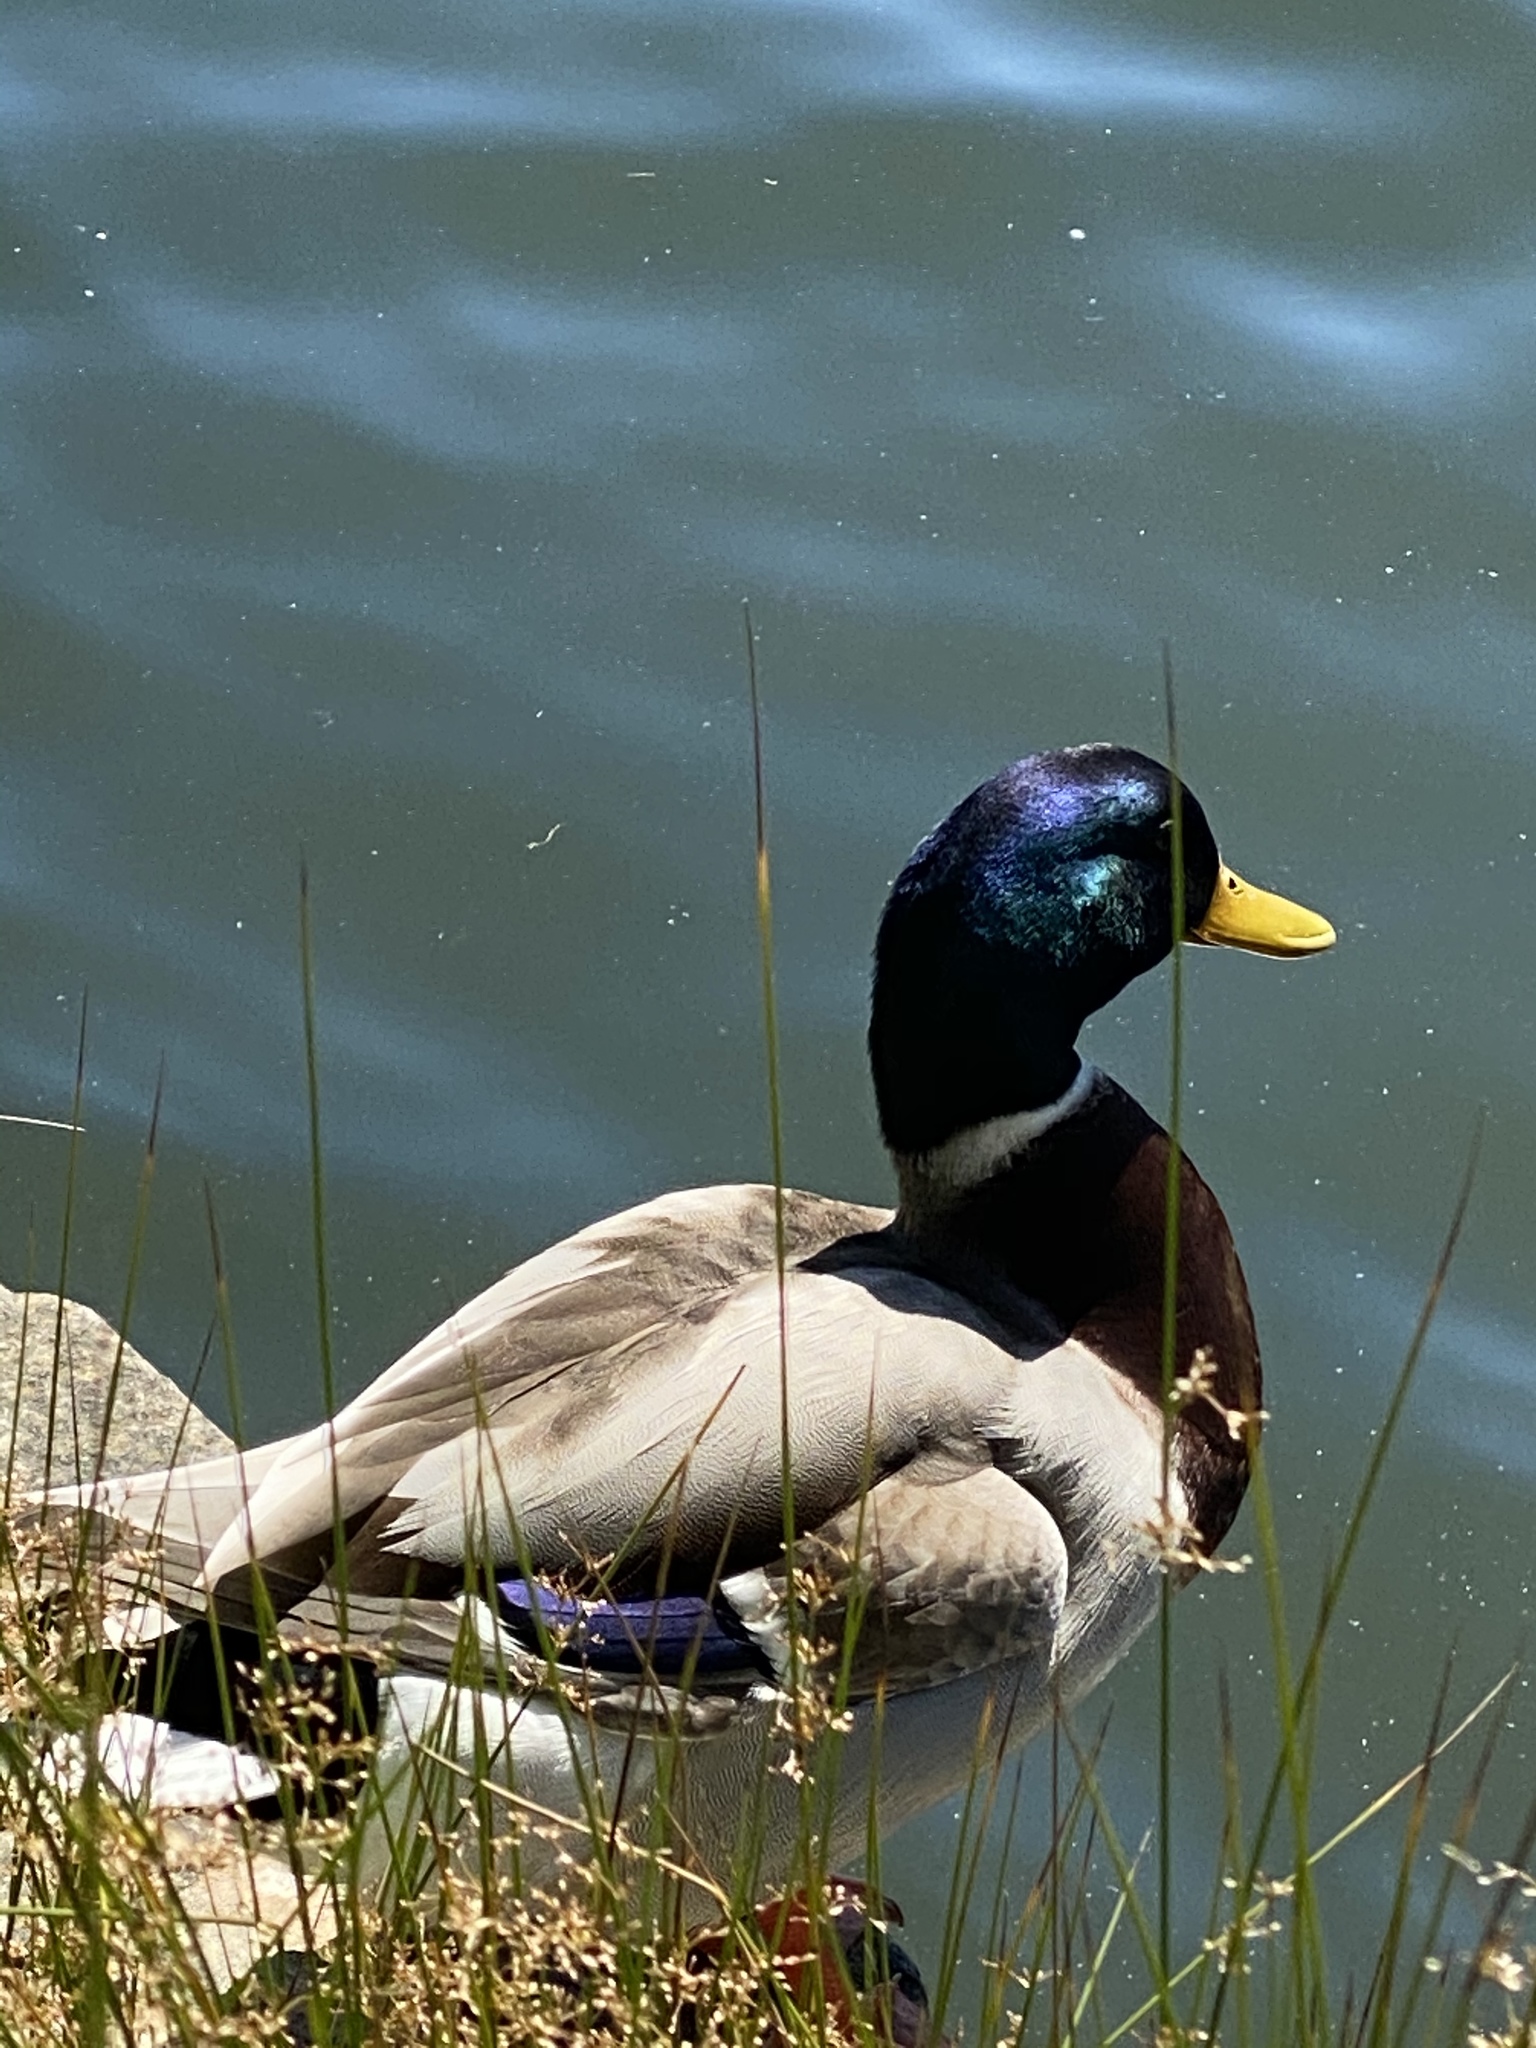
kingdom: Animalia
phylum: Chordata
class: Aves
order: Anseriformes
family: Anatidae
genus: Anas
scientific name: Anas platyrhynchos
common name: Mallard
